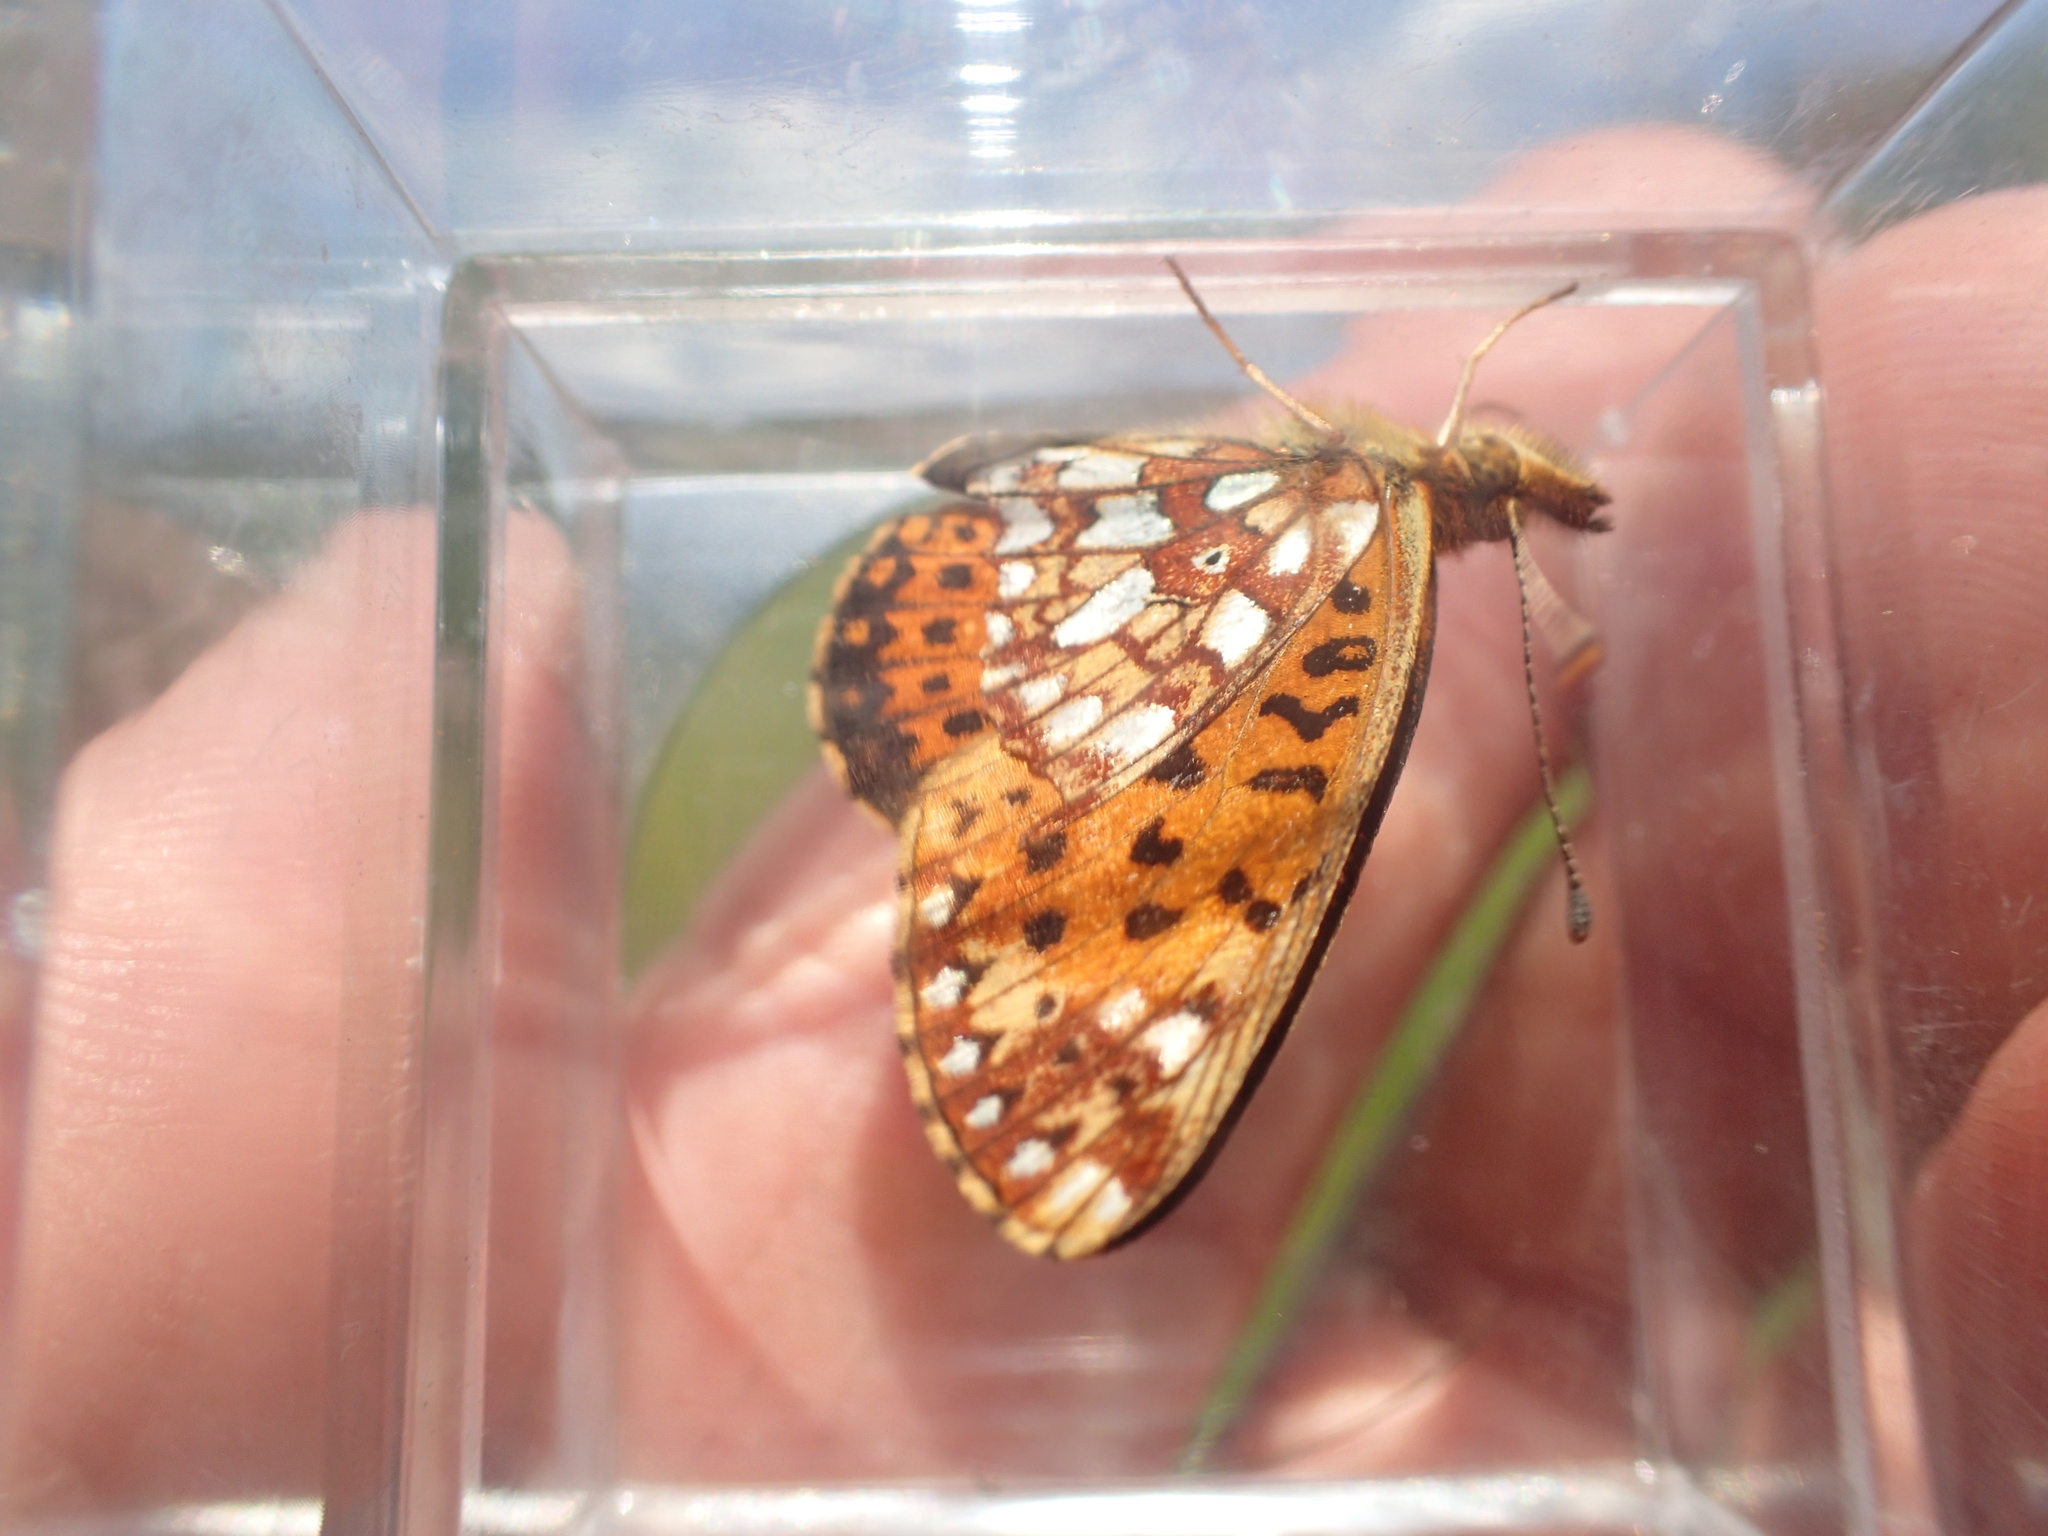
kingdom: Animalia
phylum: Arthropoda
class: Insecta
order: Lepidoptera
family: Nymphalidae
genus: Boloria
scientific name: Boloria
